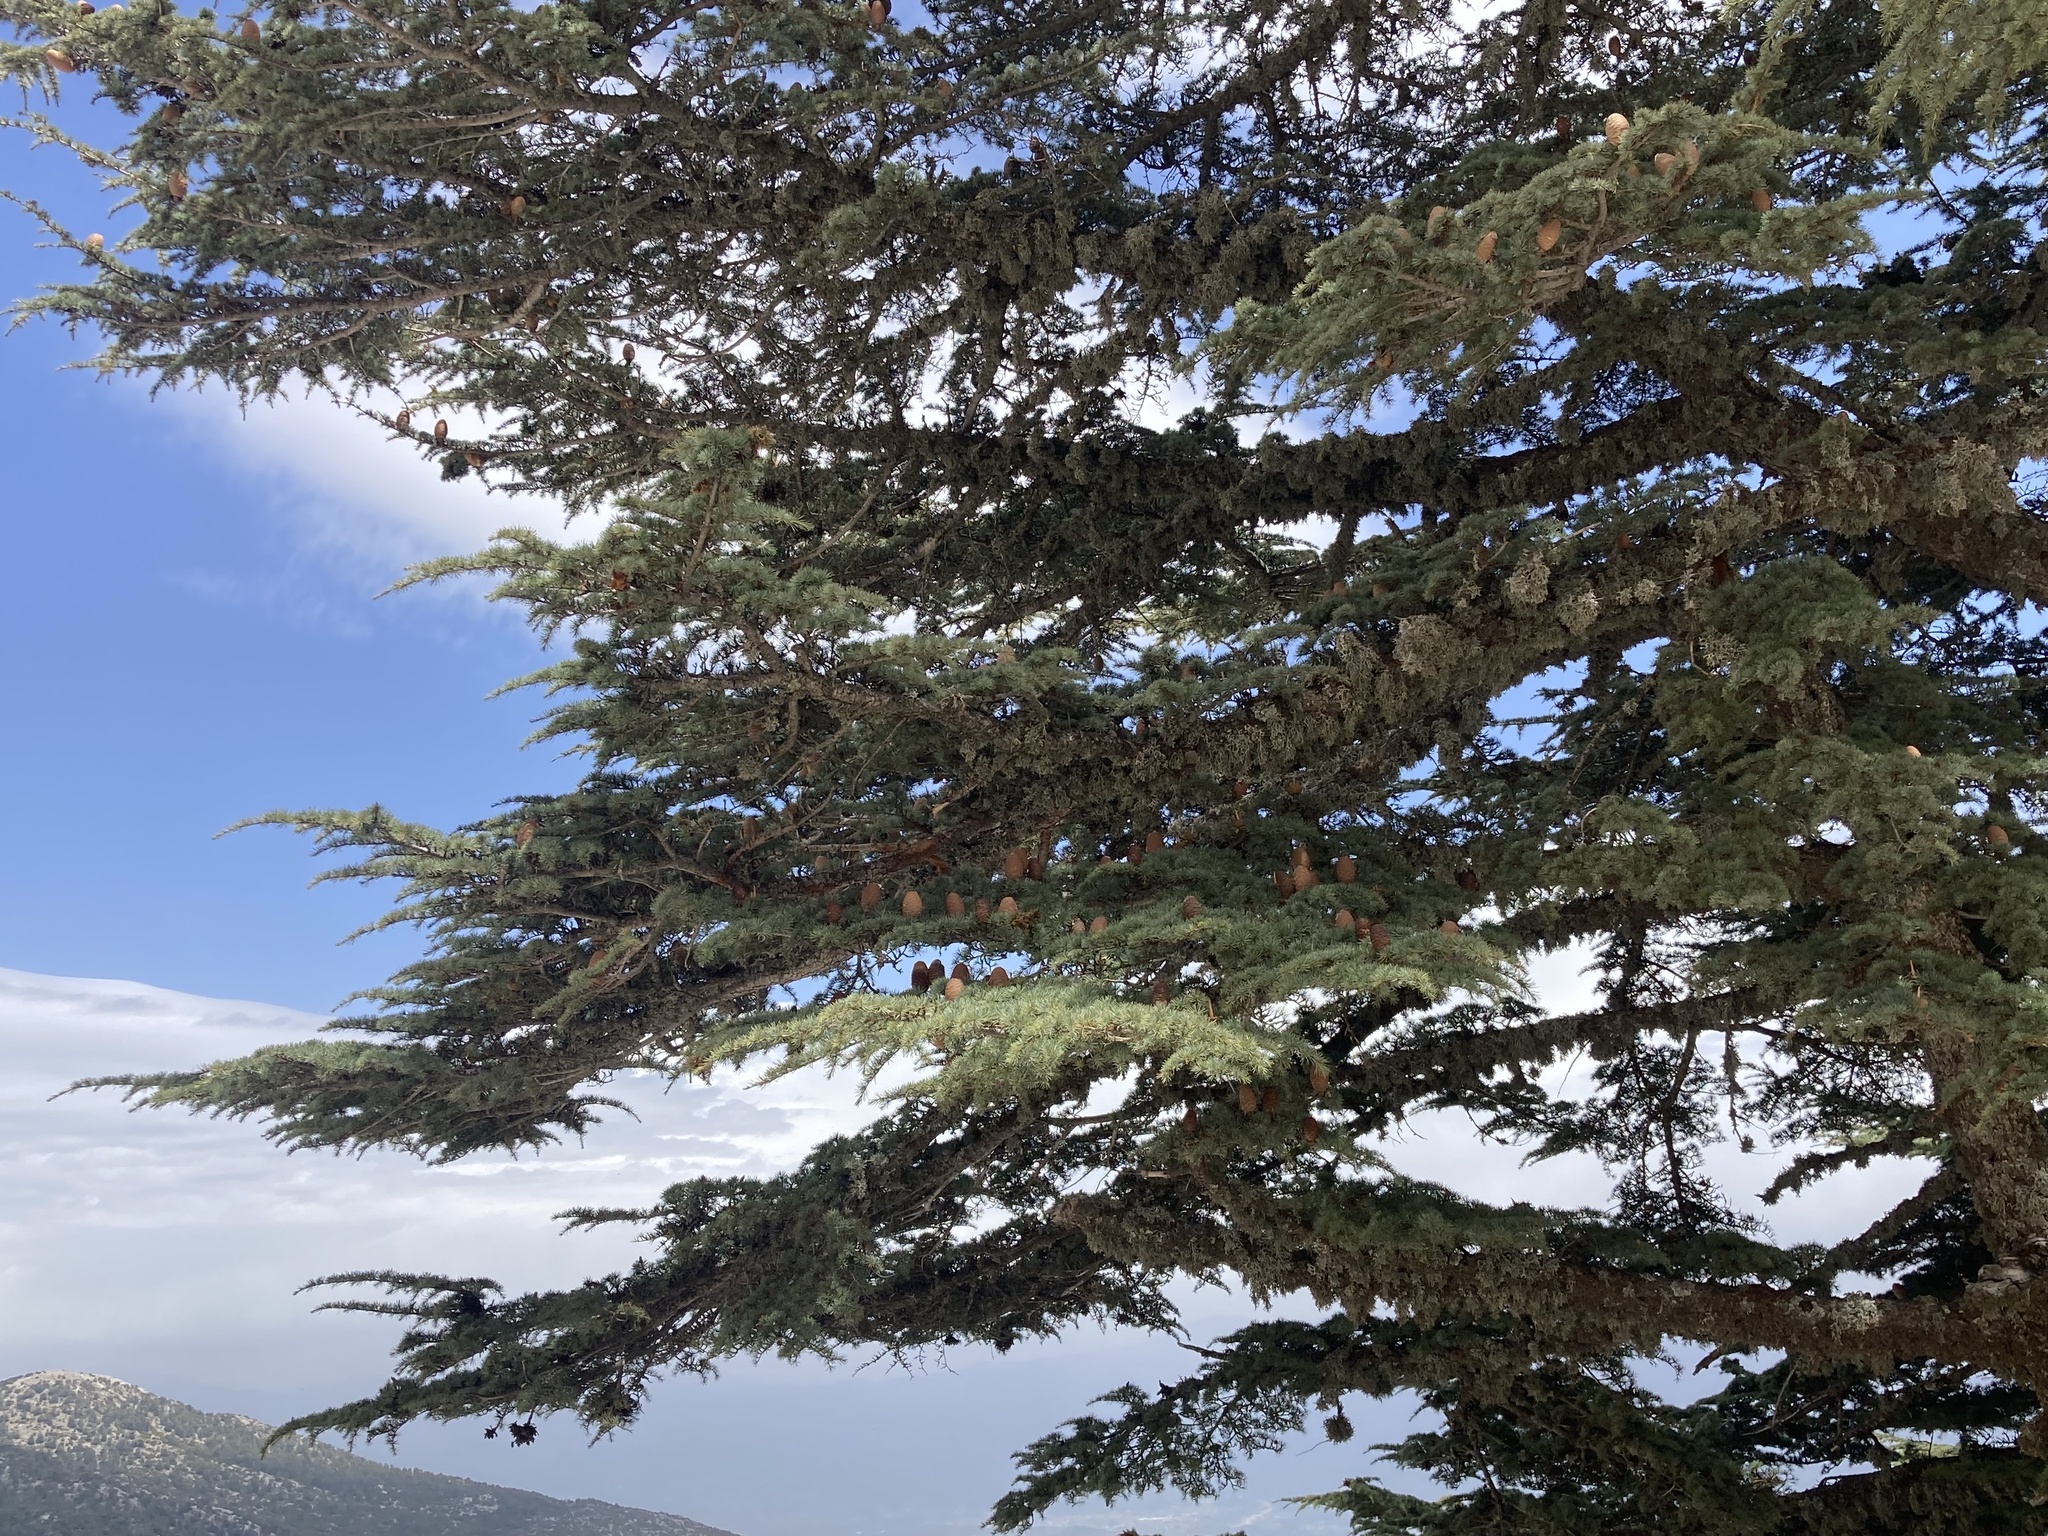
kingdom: Plantae
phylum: Tracheophyta
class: Pinopsida
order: Pinales
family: Pinaceae
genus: Cedrus
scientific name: Cedrus libani
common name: Cedar-of-lebanon
